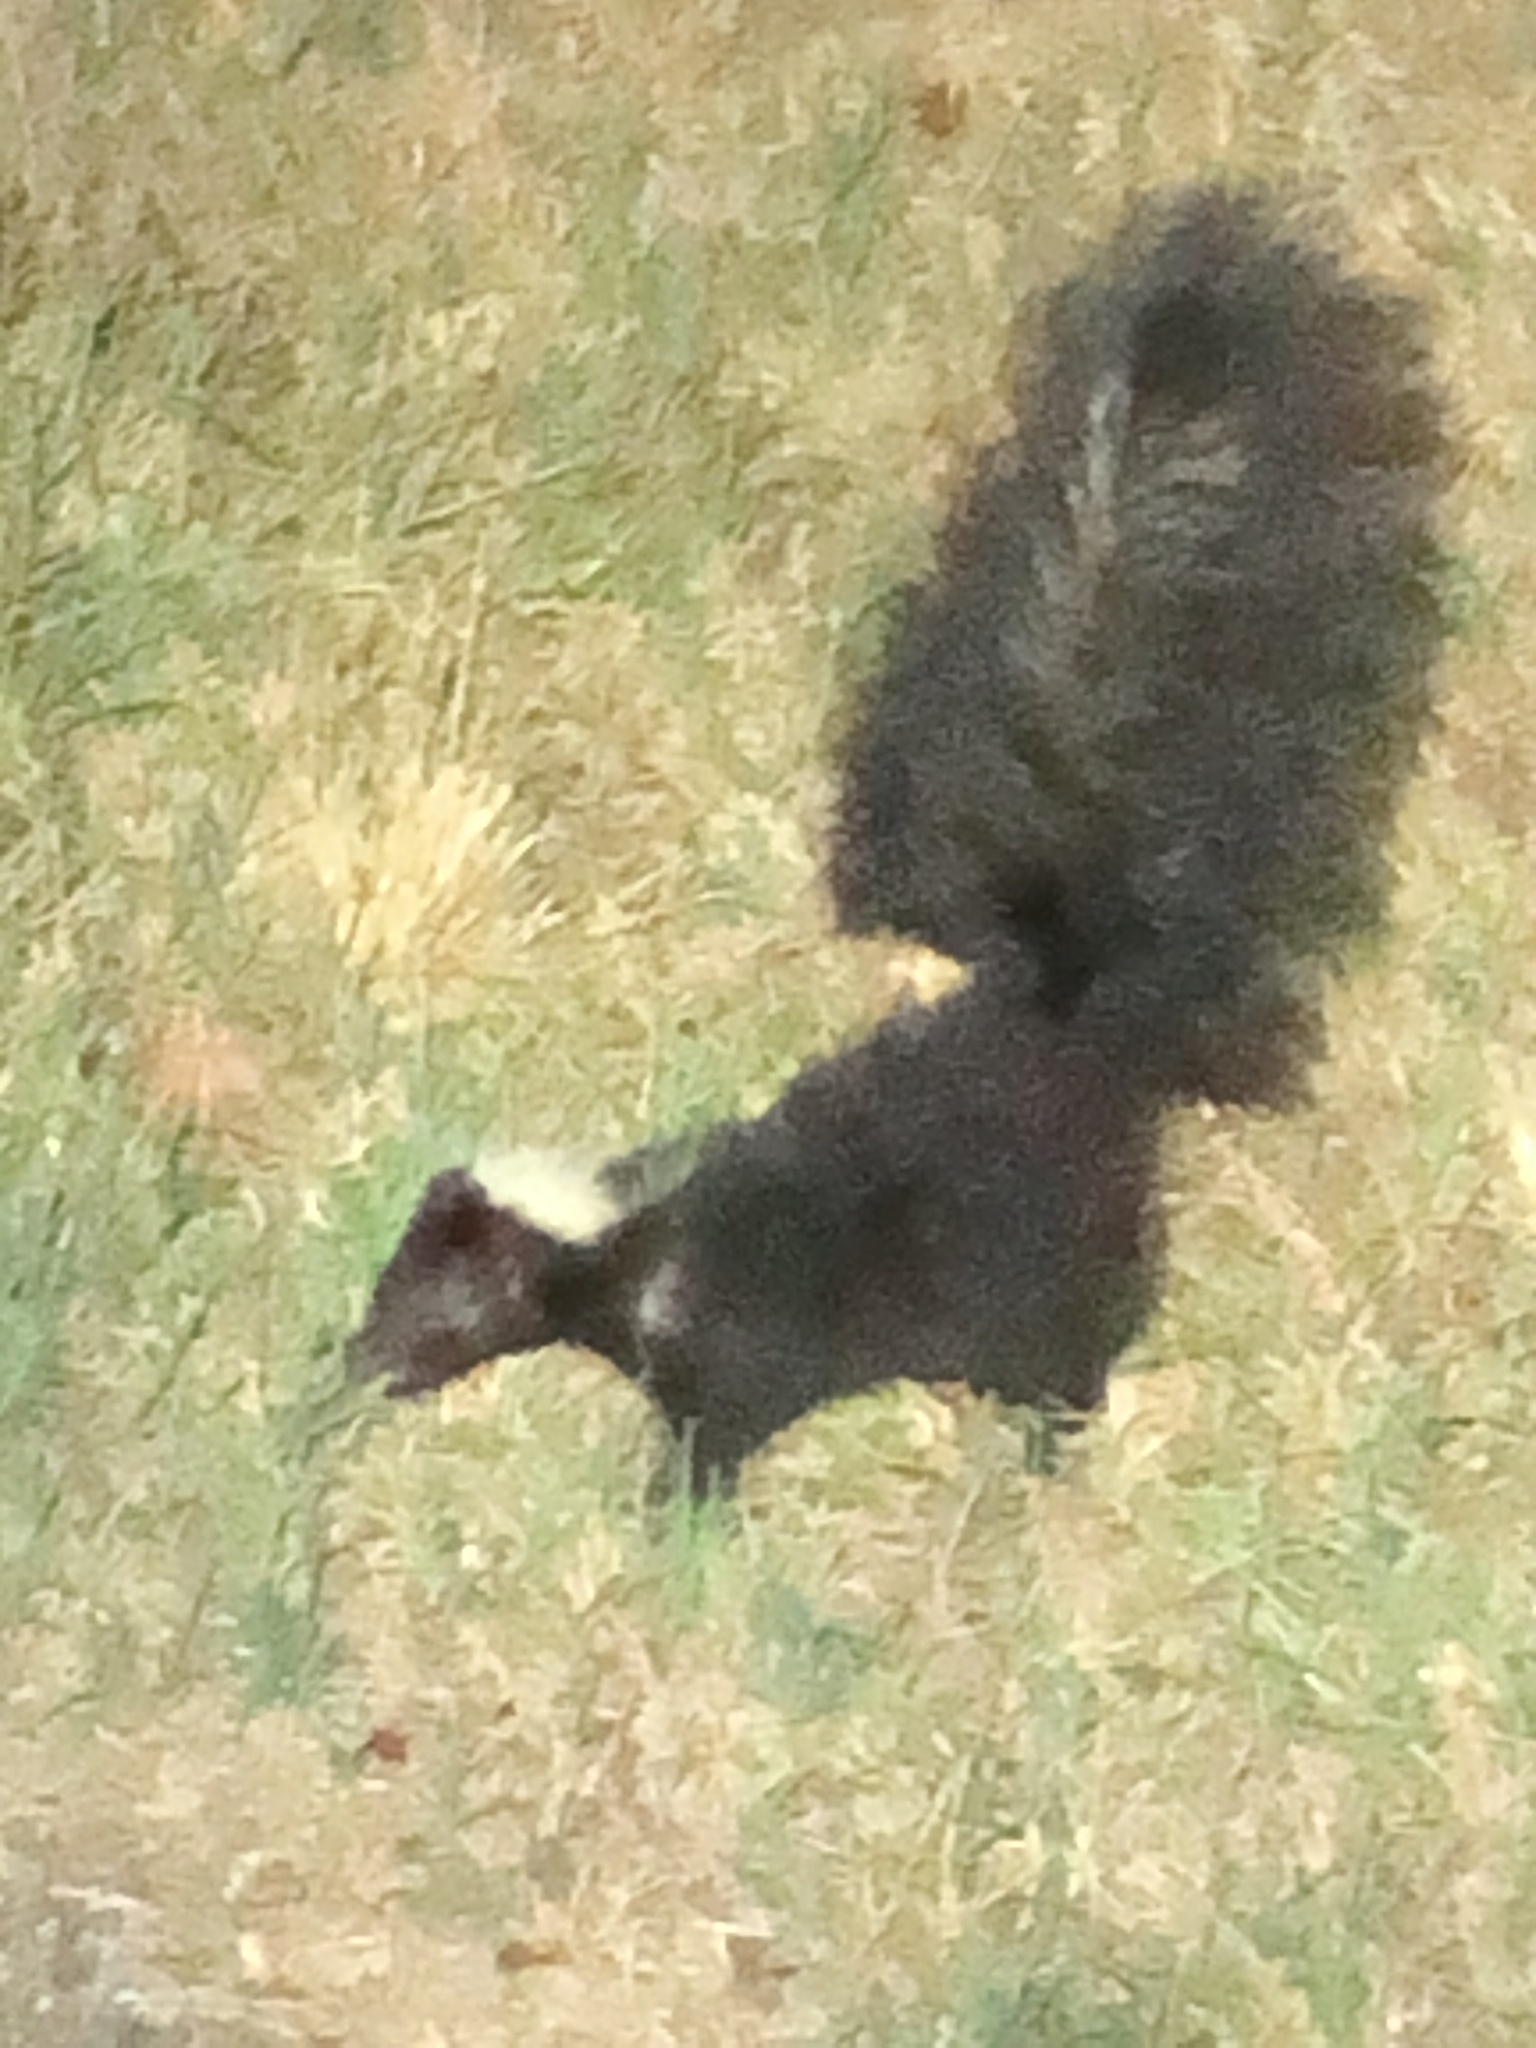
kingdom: Animalia
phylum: Chordata
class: Mammalia
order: Carnivora
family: Mephitidae
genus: Mephitis
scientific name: Mephitis mephitis
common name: Striped skunk
